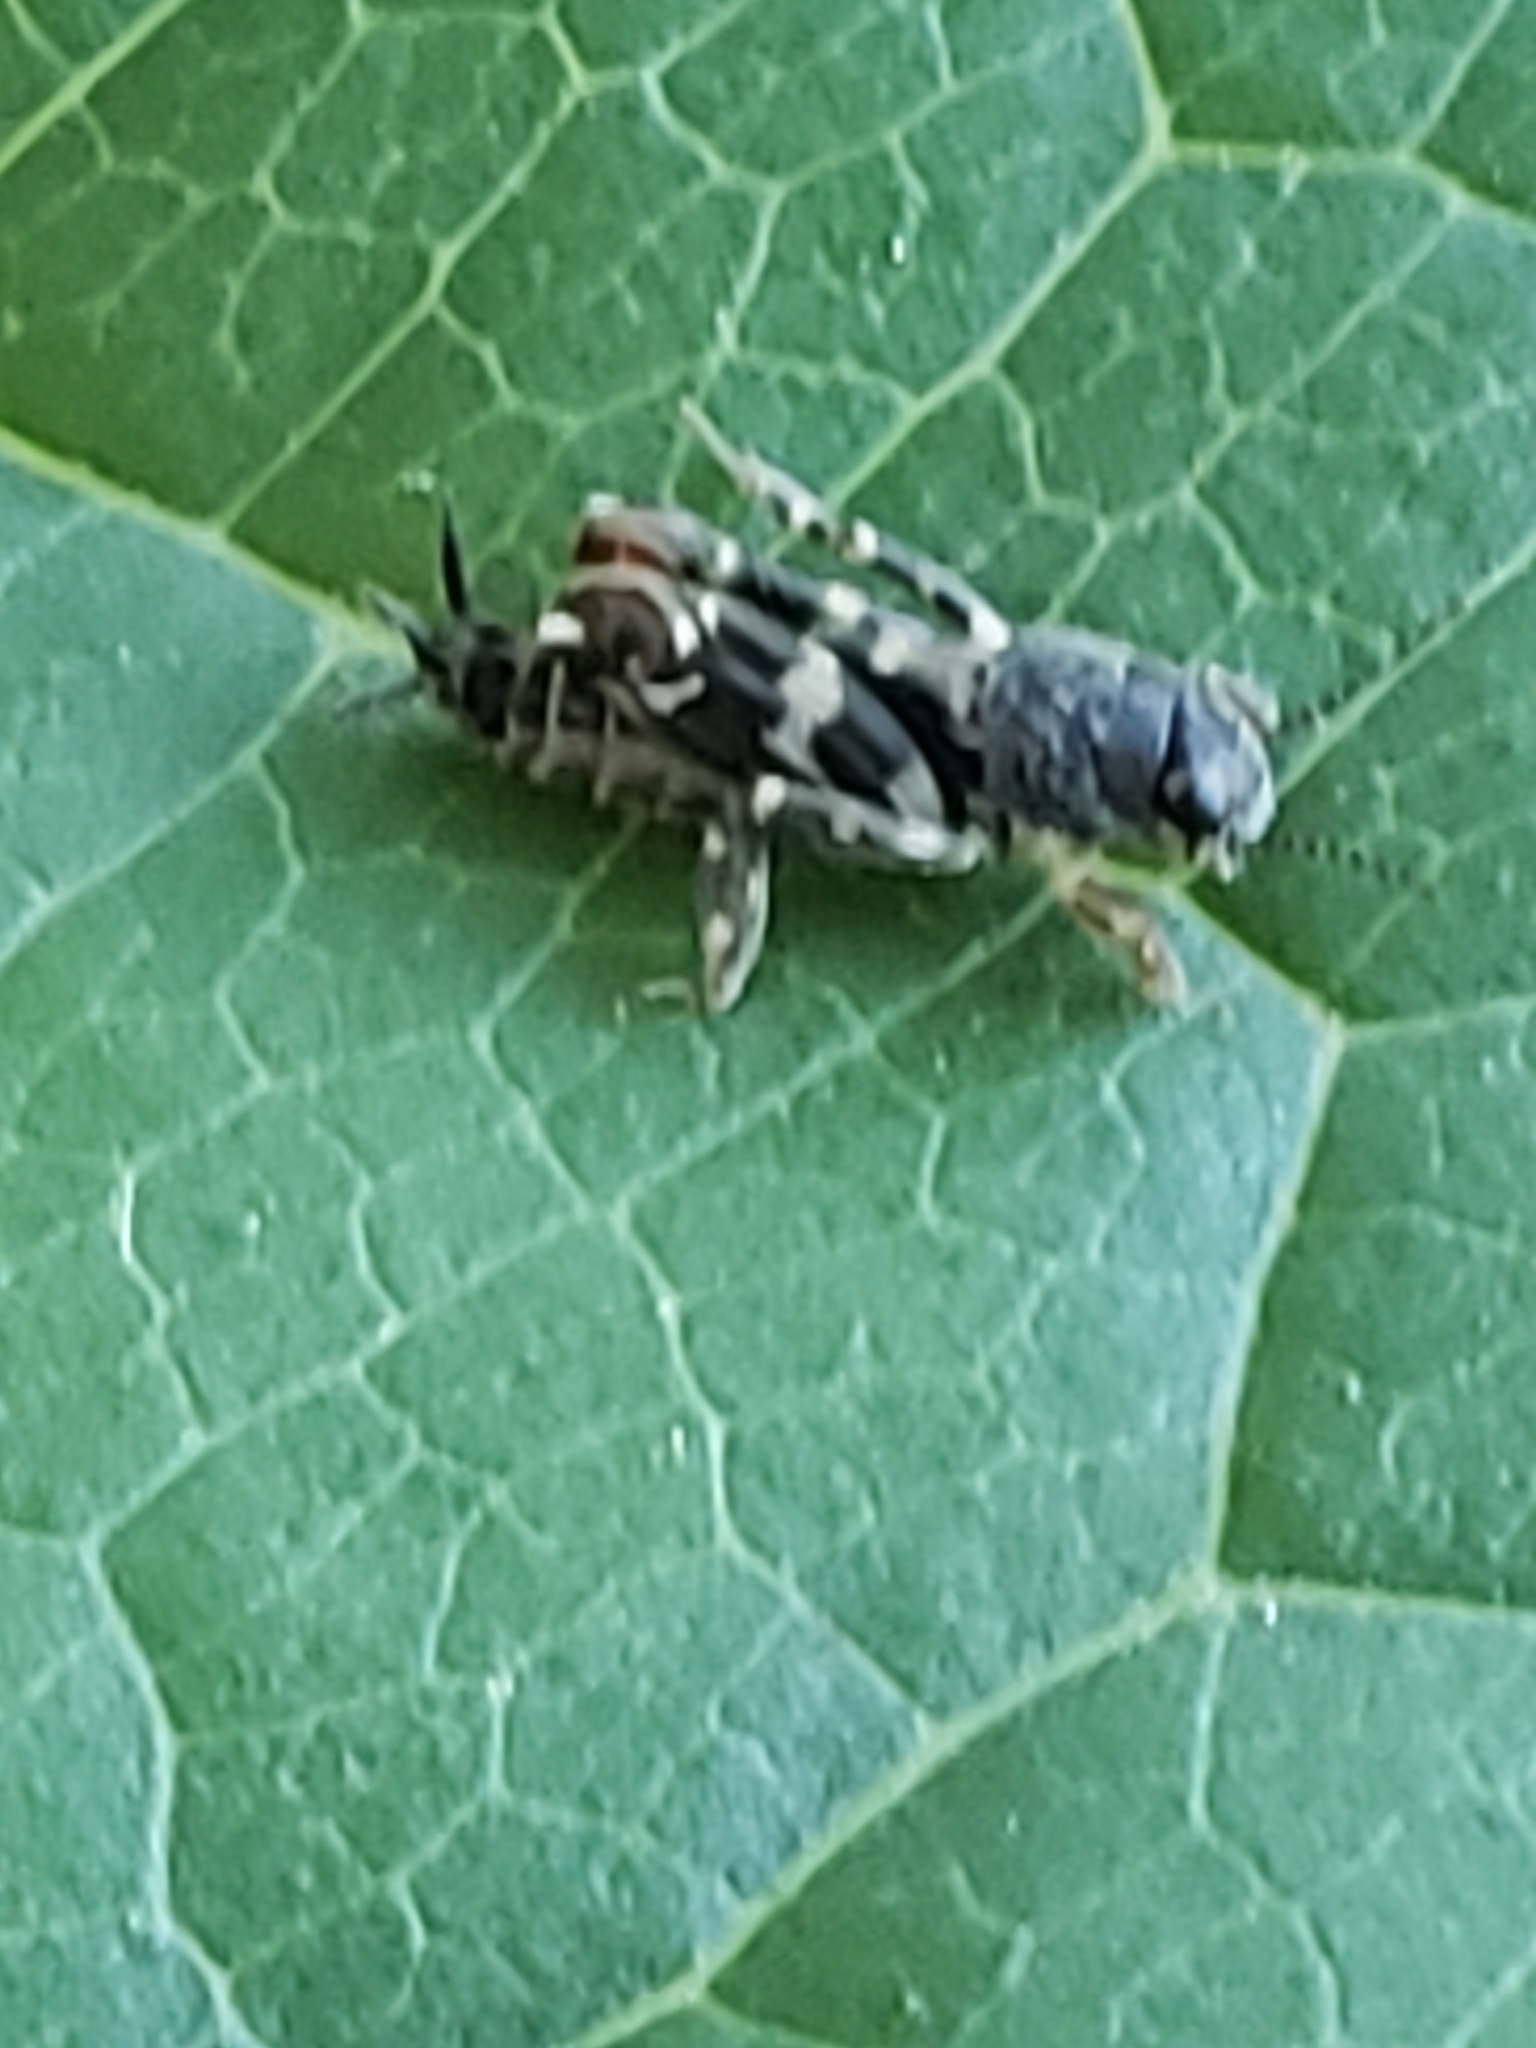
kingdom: Animalia
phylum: Arthropoda
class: Insecta
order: Orthoptera
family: Tridactylidae
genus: Ellipes
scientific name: Ellipes minuta
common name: Minute pygmy locust
